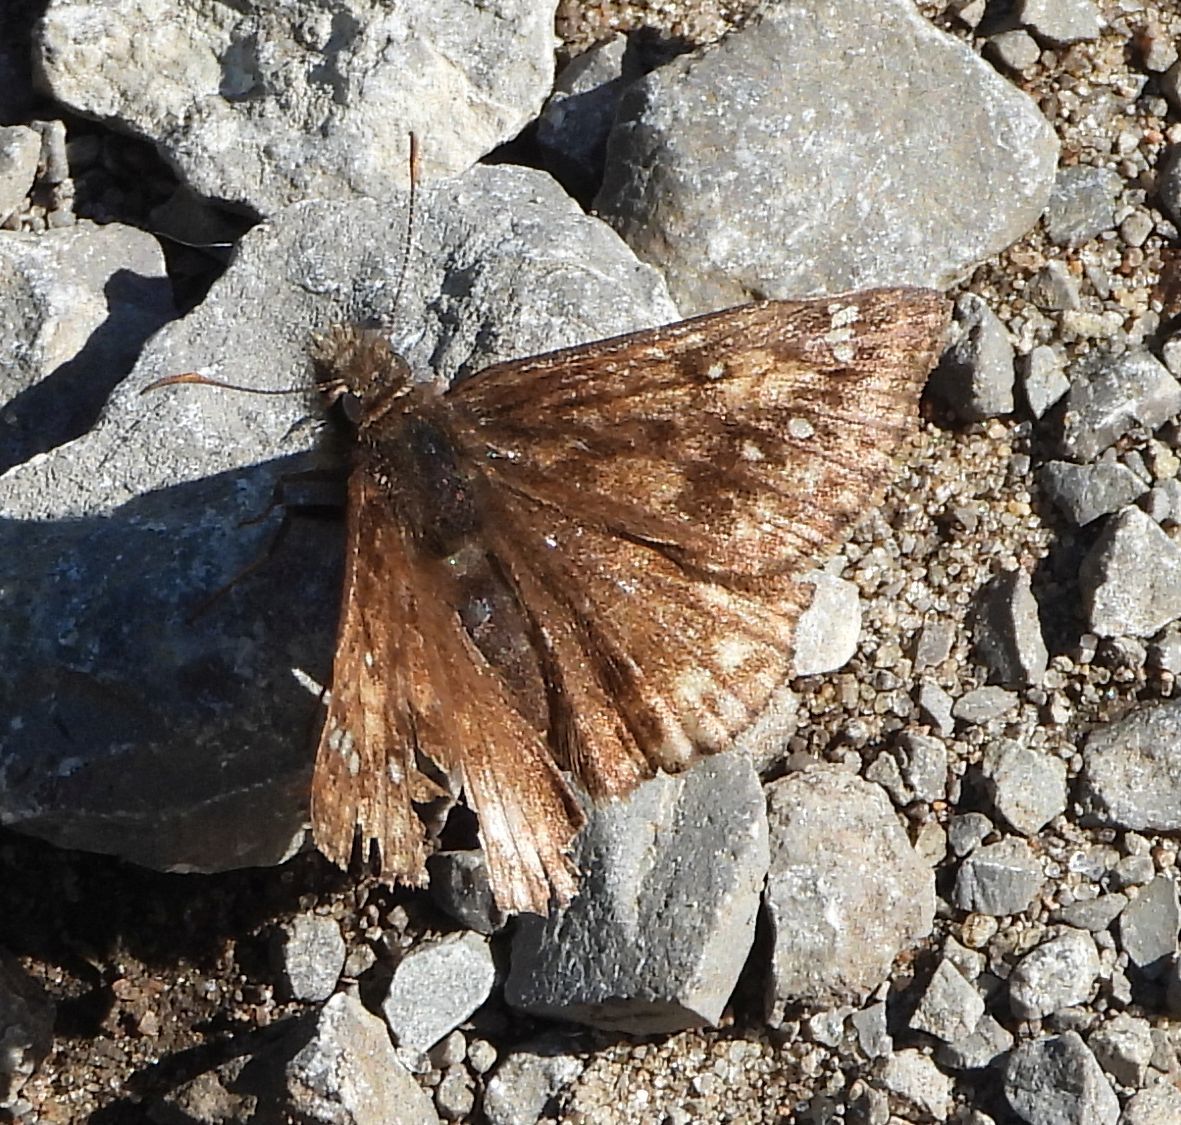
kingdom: Animalia
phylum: Arthropoda
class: Insecta
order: Lepidoptera
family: Hesperiidae
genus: Erynnis
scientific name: Erynnis juvenalis
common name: Juvenal's duskywing
